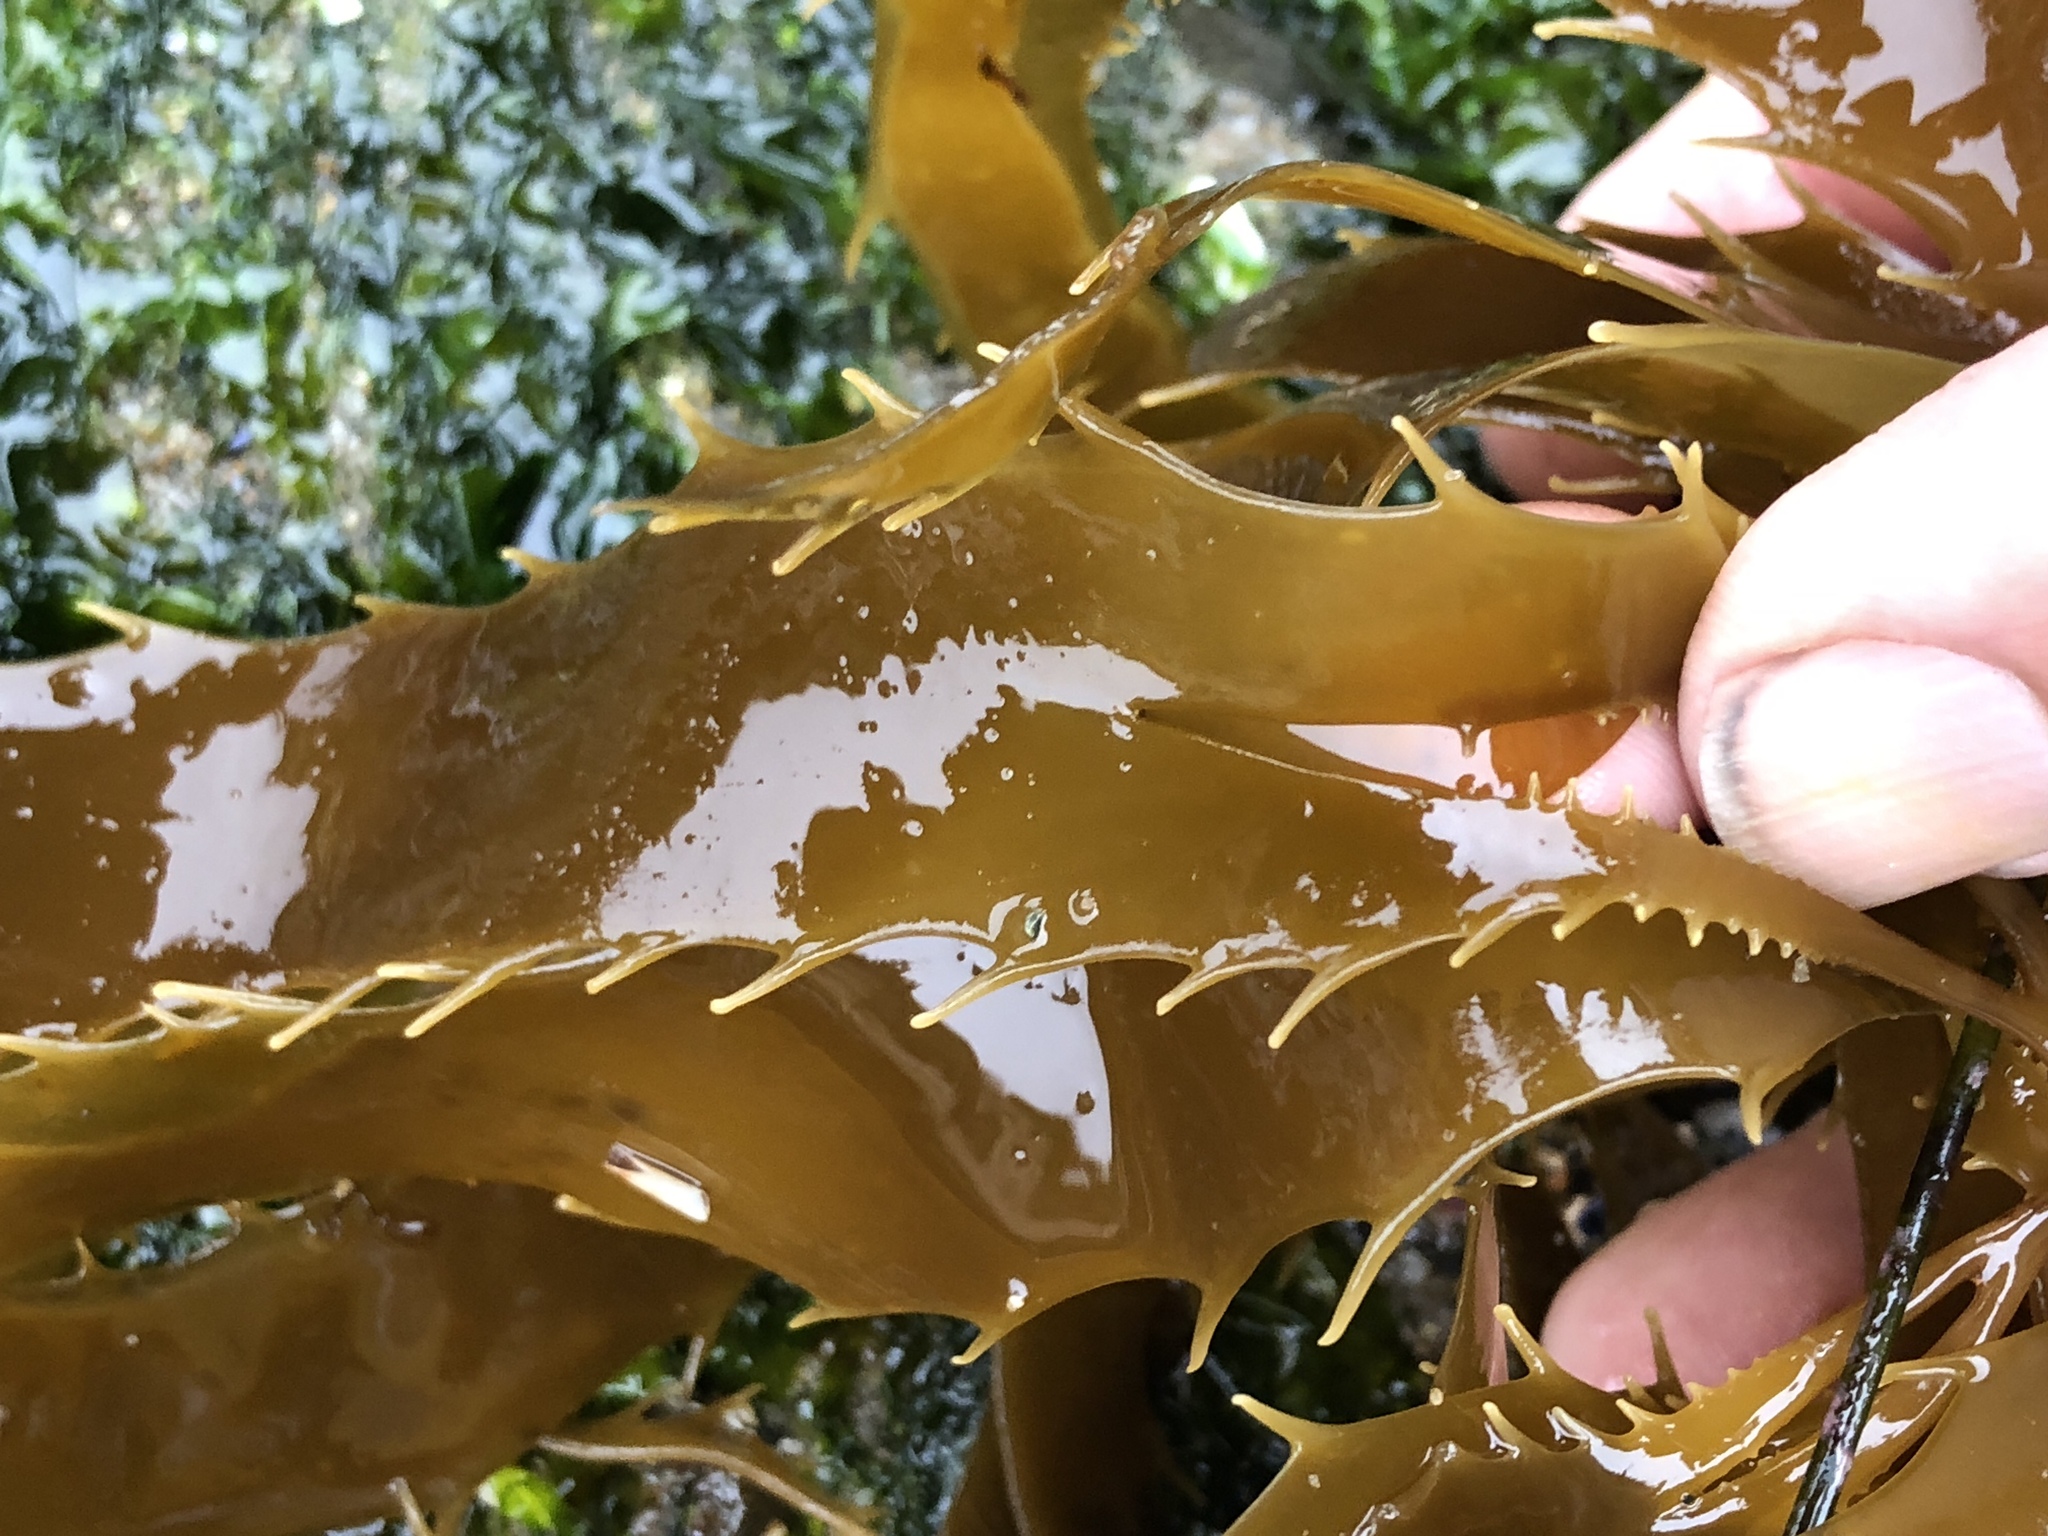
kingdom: Chromista
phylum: Ochrophyta
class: Phaeophyceae
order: Laminariales
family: Laminariaceae
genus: Macrocystis
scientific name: Macrocystis pyrifera
